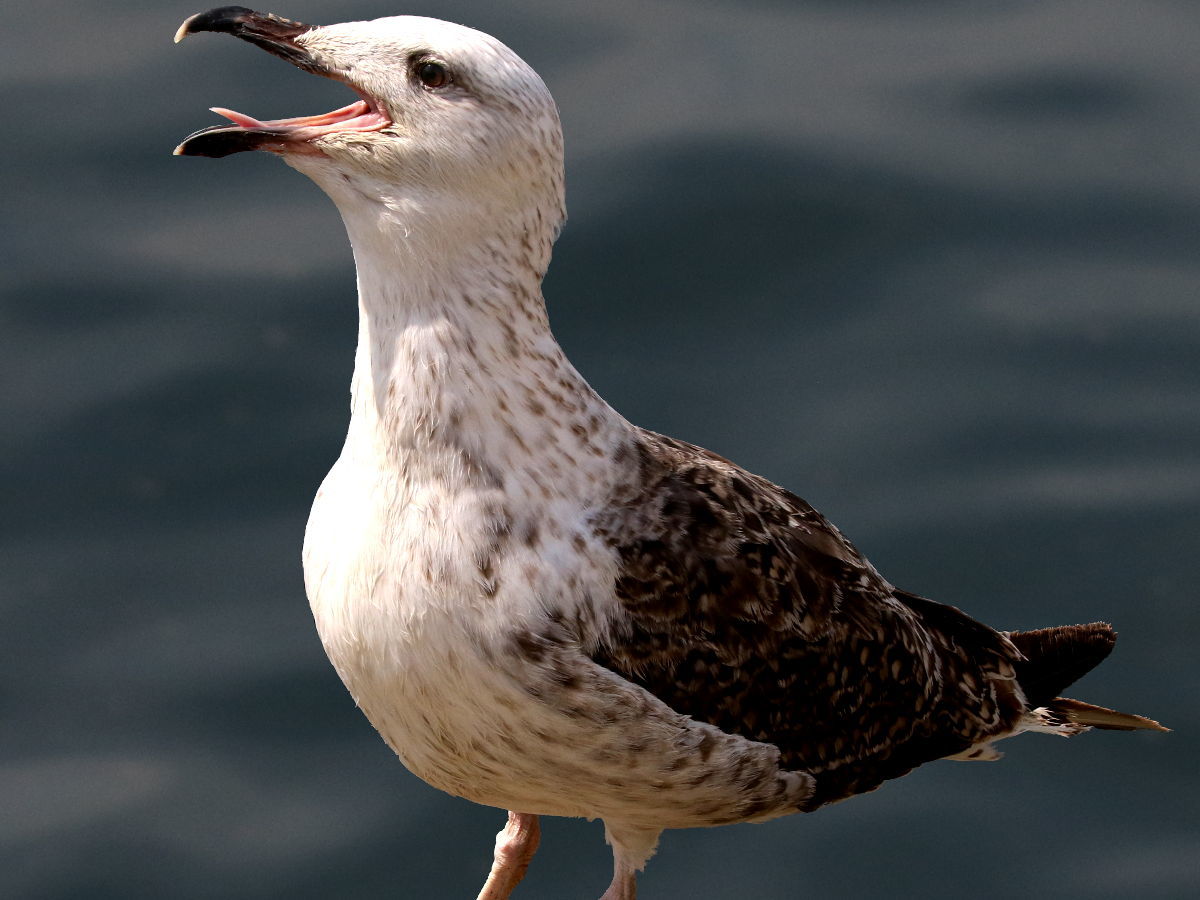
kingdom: Animalia
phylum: Chordata
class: Aves
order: Charadriiformes
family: Laridae
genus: Larus
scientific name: Larus marinus
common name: Great black-backed gull
